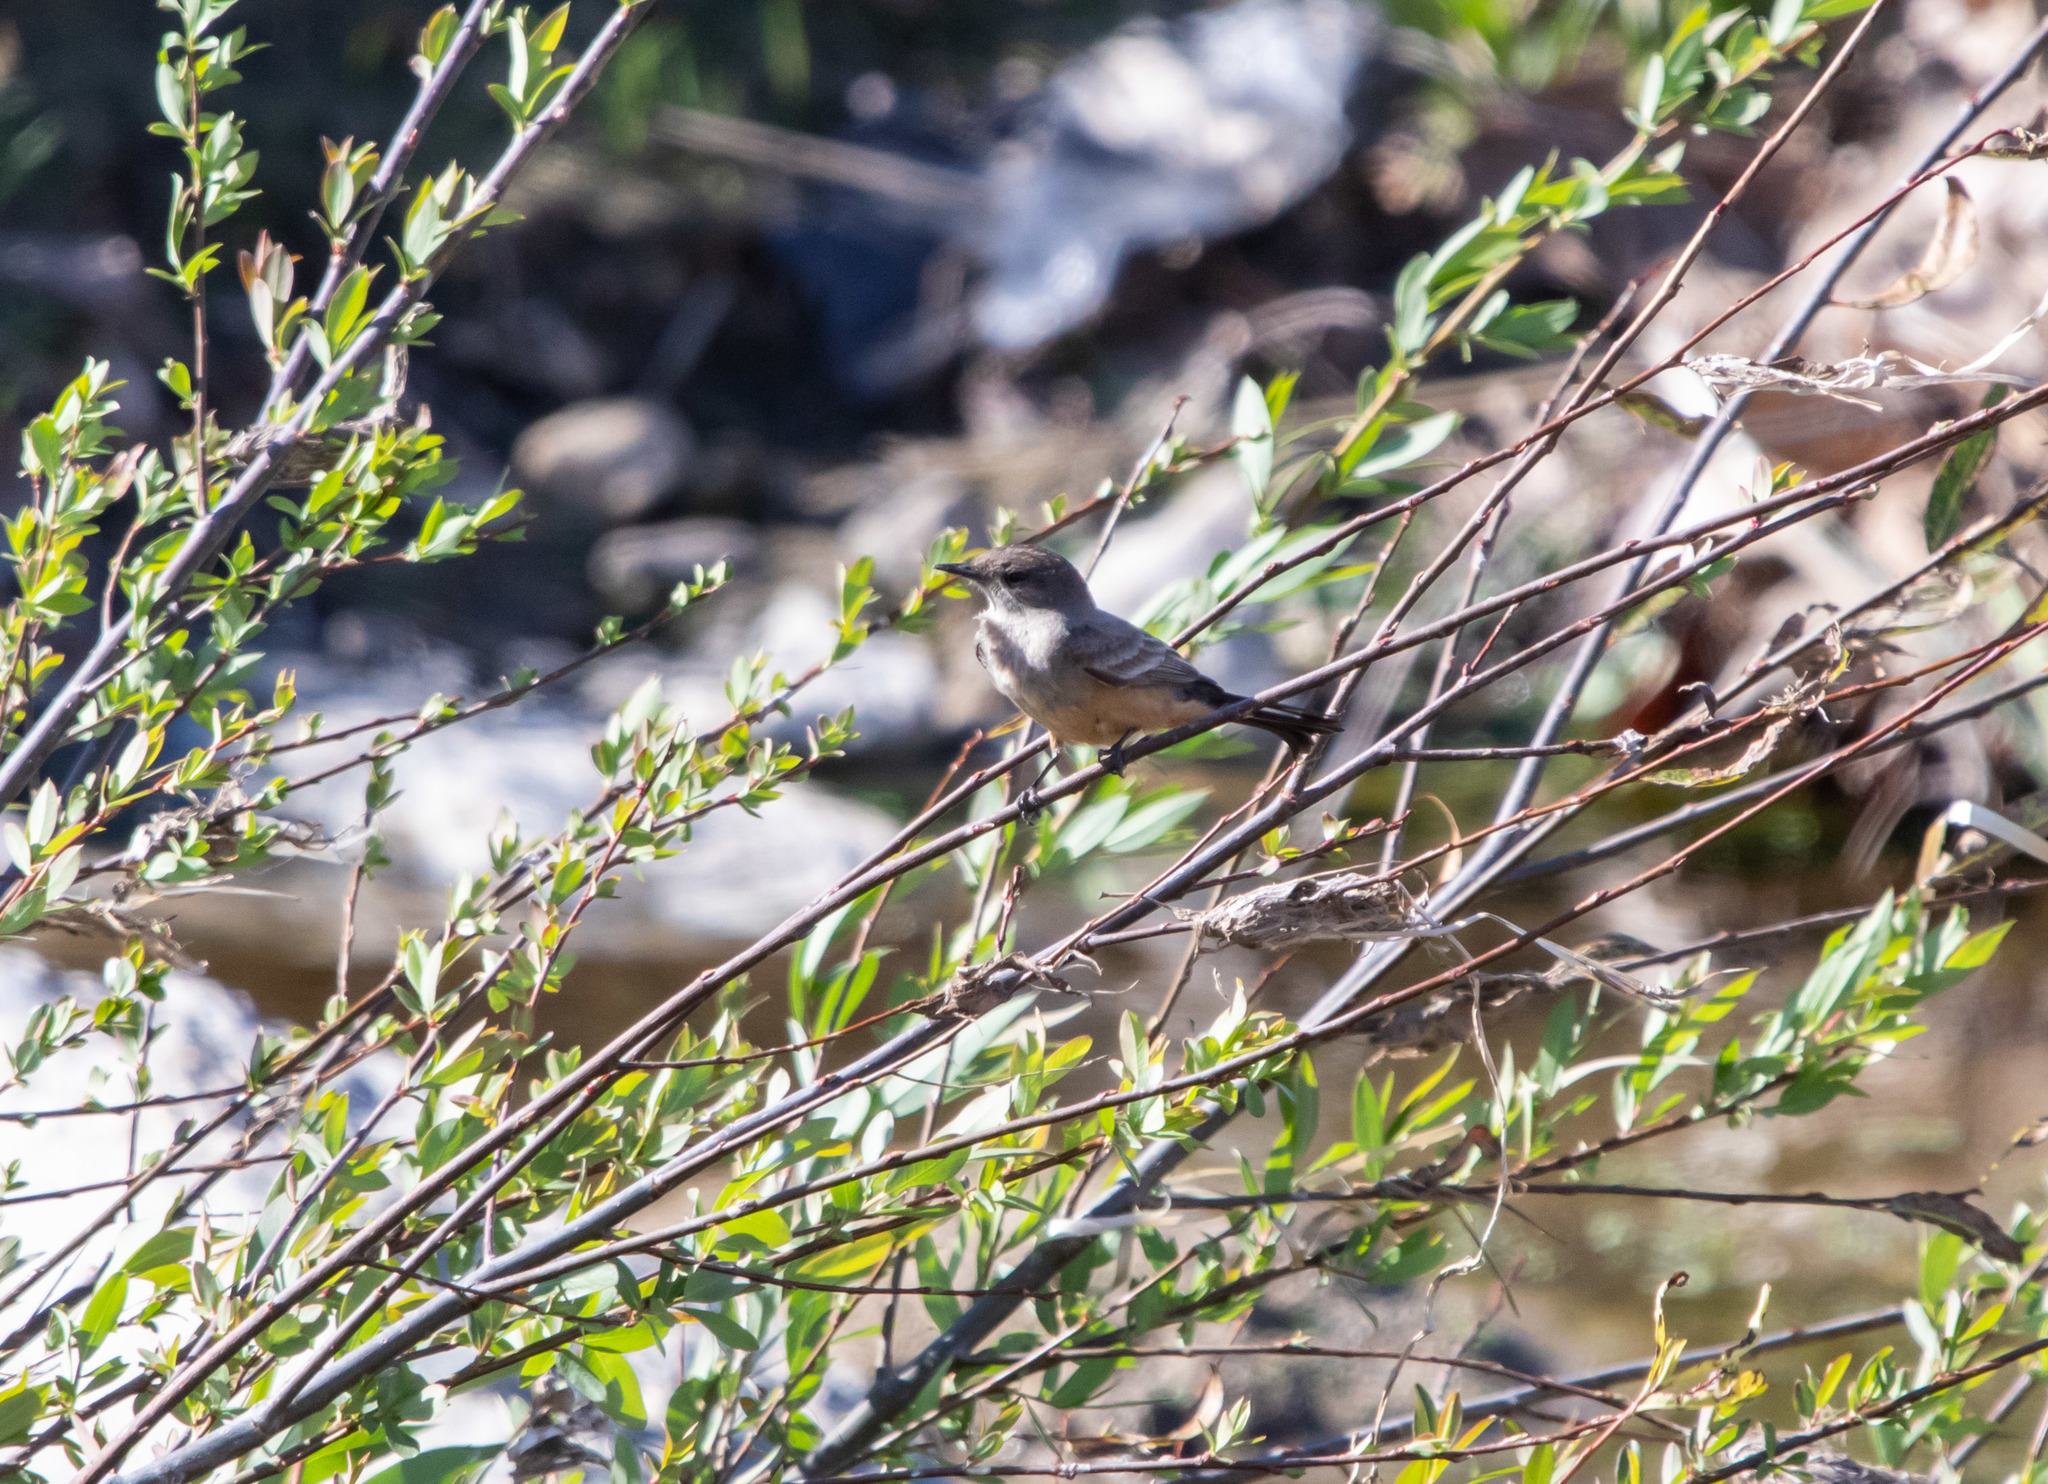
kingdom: Animalia
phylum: Chordata
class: Aves
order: Passeriformes
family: Tyrannidae
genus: Sayornis
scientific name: Sayornis saya
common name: Say's phoebe
